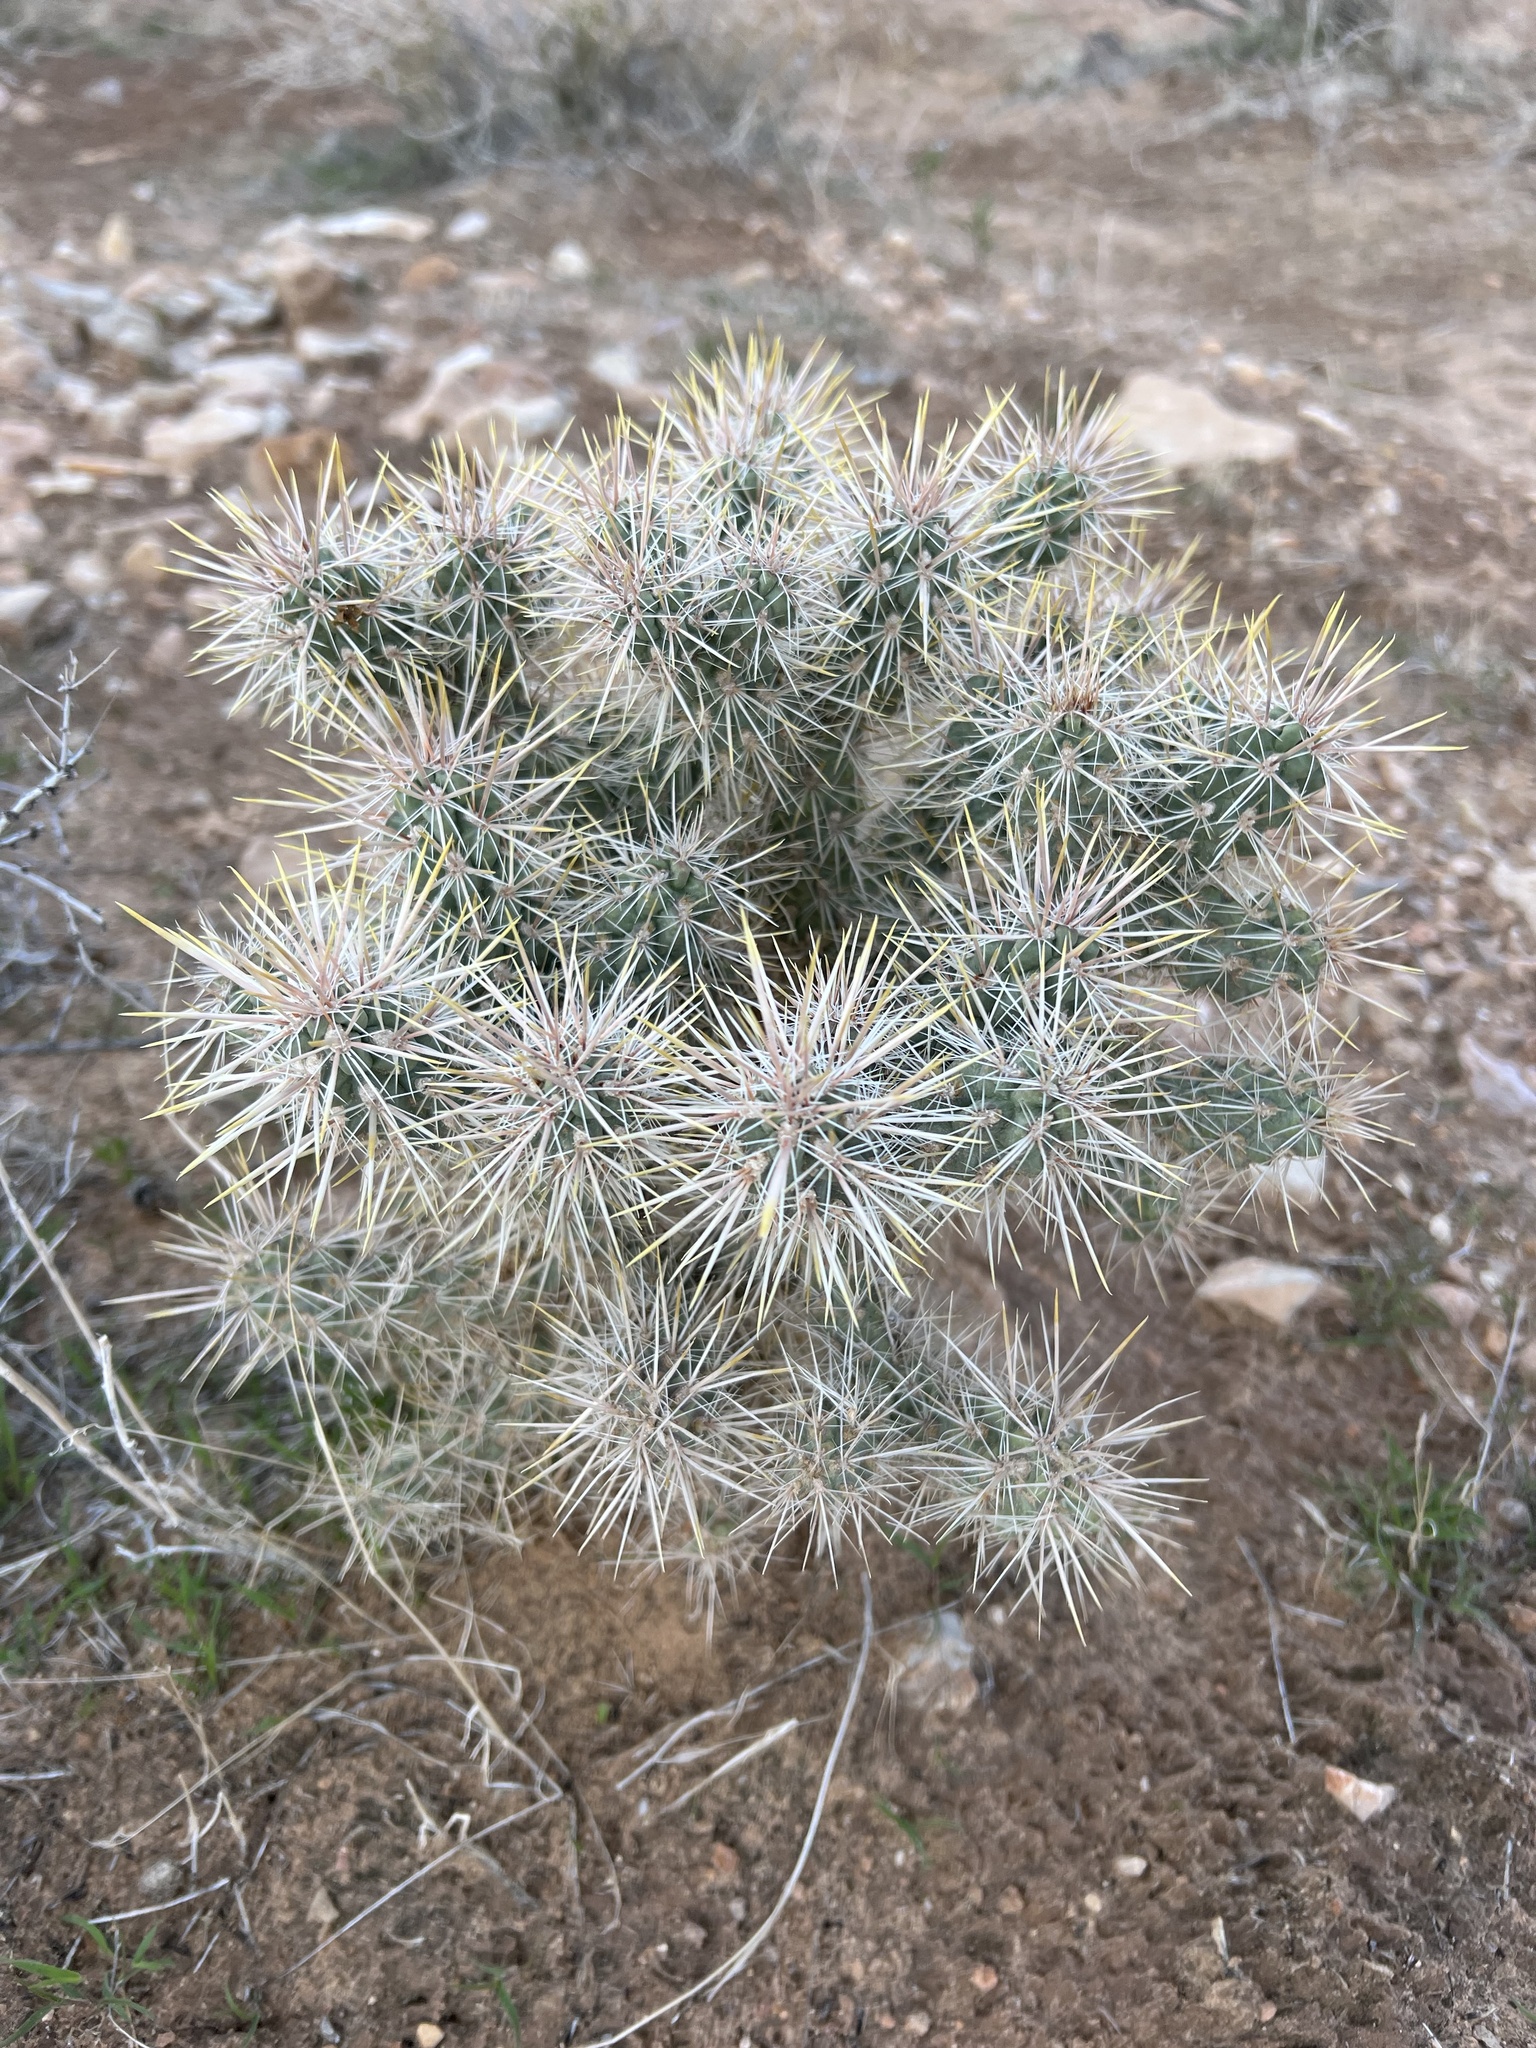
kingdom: Plantae
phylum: Tracheophyta
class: Magnoliopsida
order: Caryophyllales
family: Cactaceae
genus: Cylindropuntia
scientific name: Cylindropuntia echinocarpa
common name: Ground cholla
